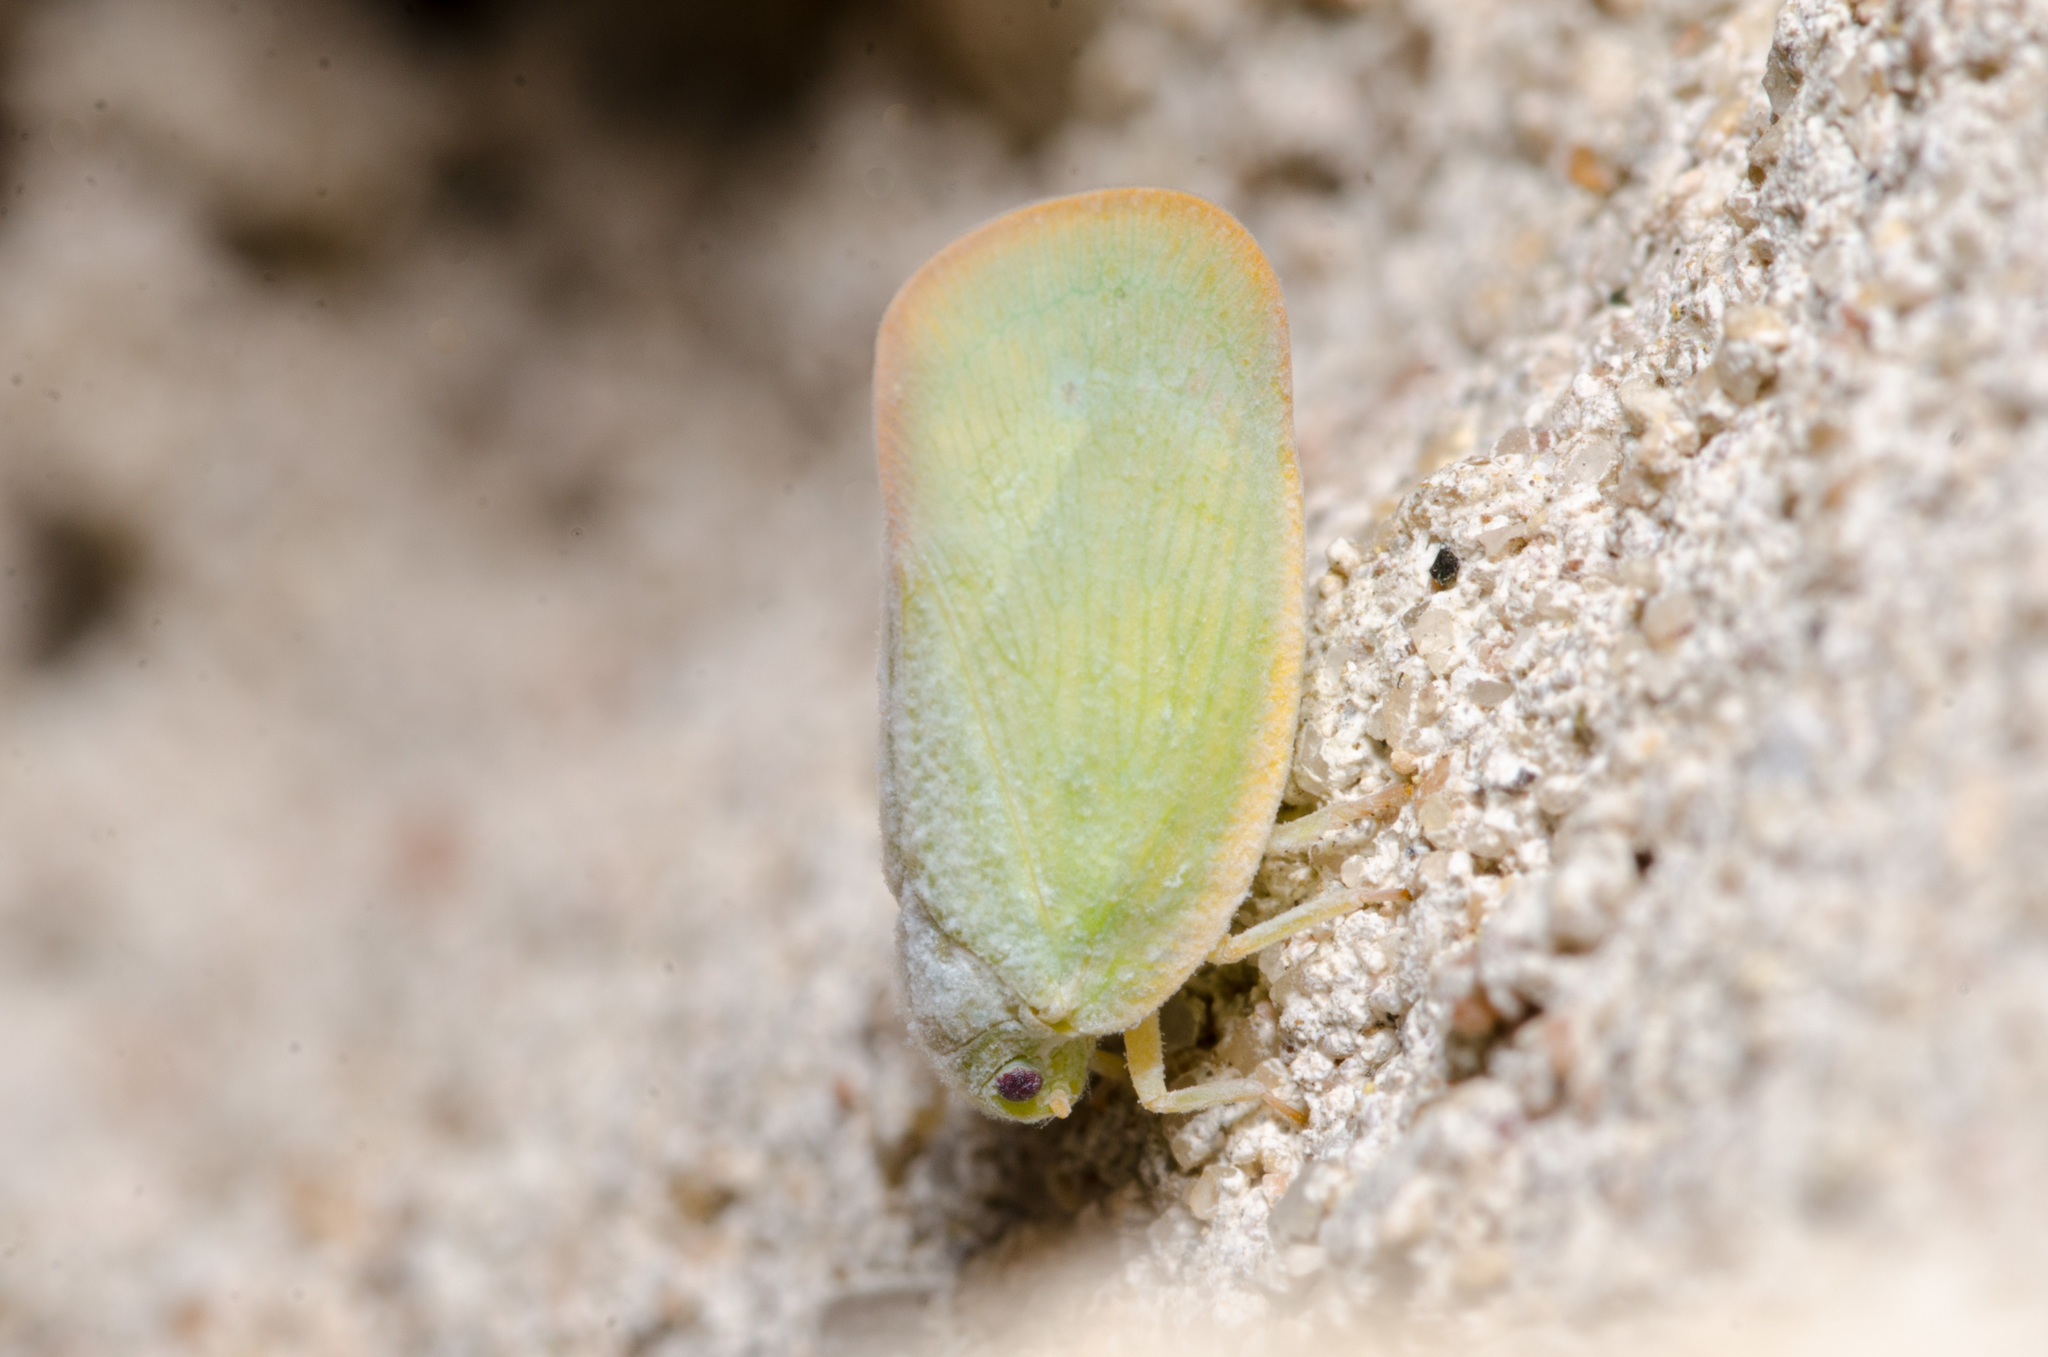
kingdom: Animalia
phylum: Arthropoda
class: Insecta
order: Hemiptera
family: Flatidae
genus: Ormenoides
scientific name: Ormenoides venusta
